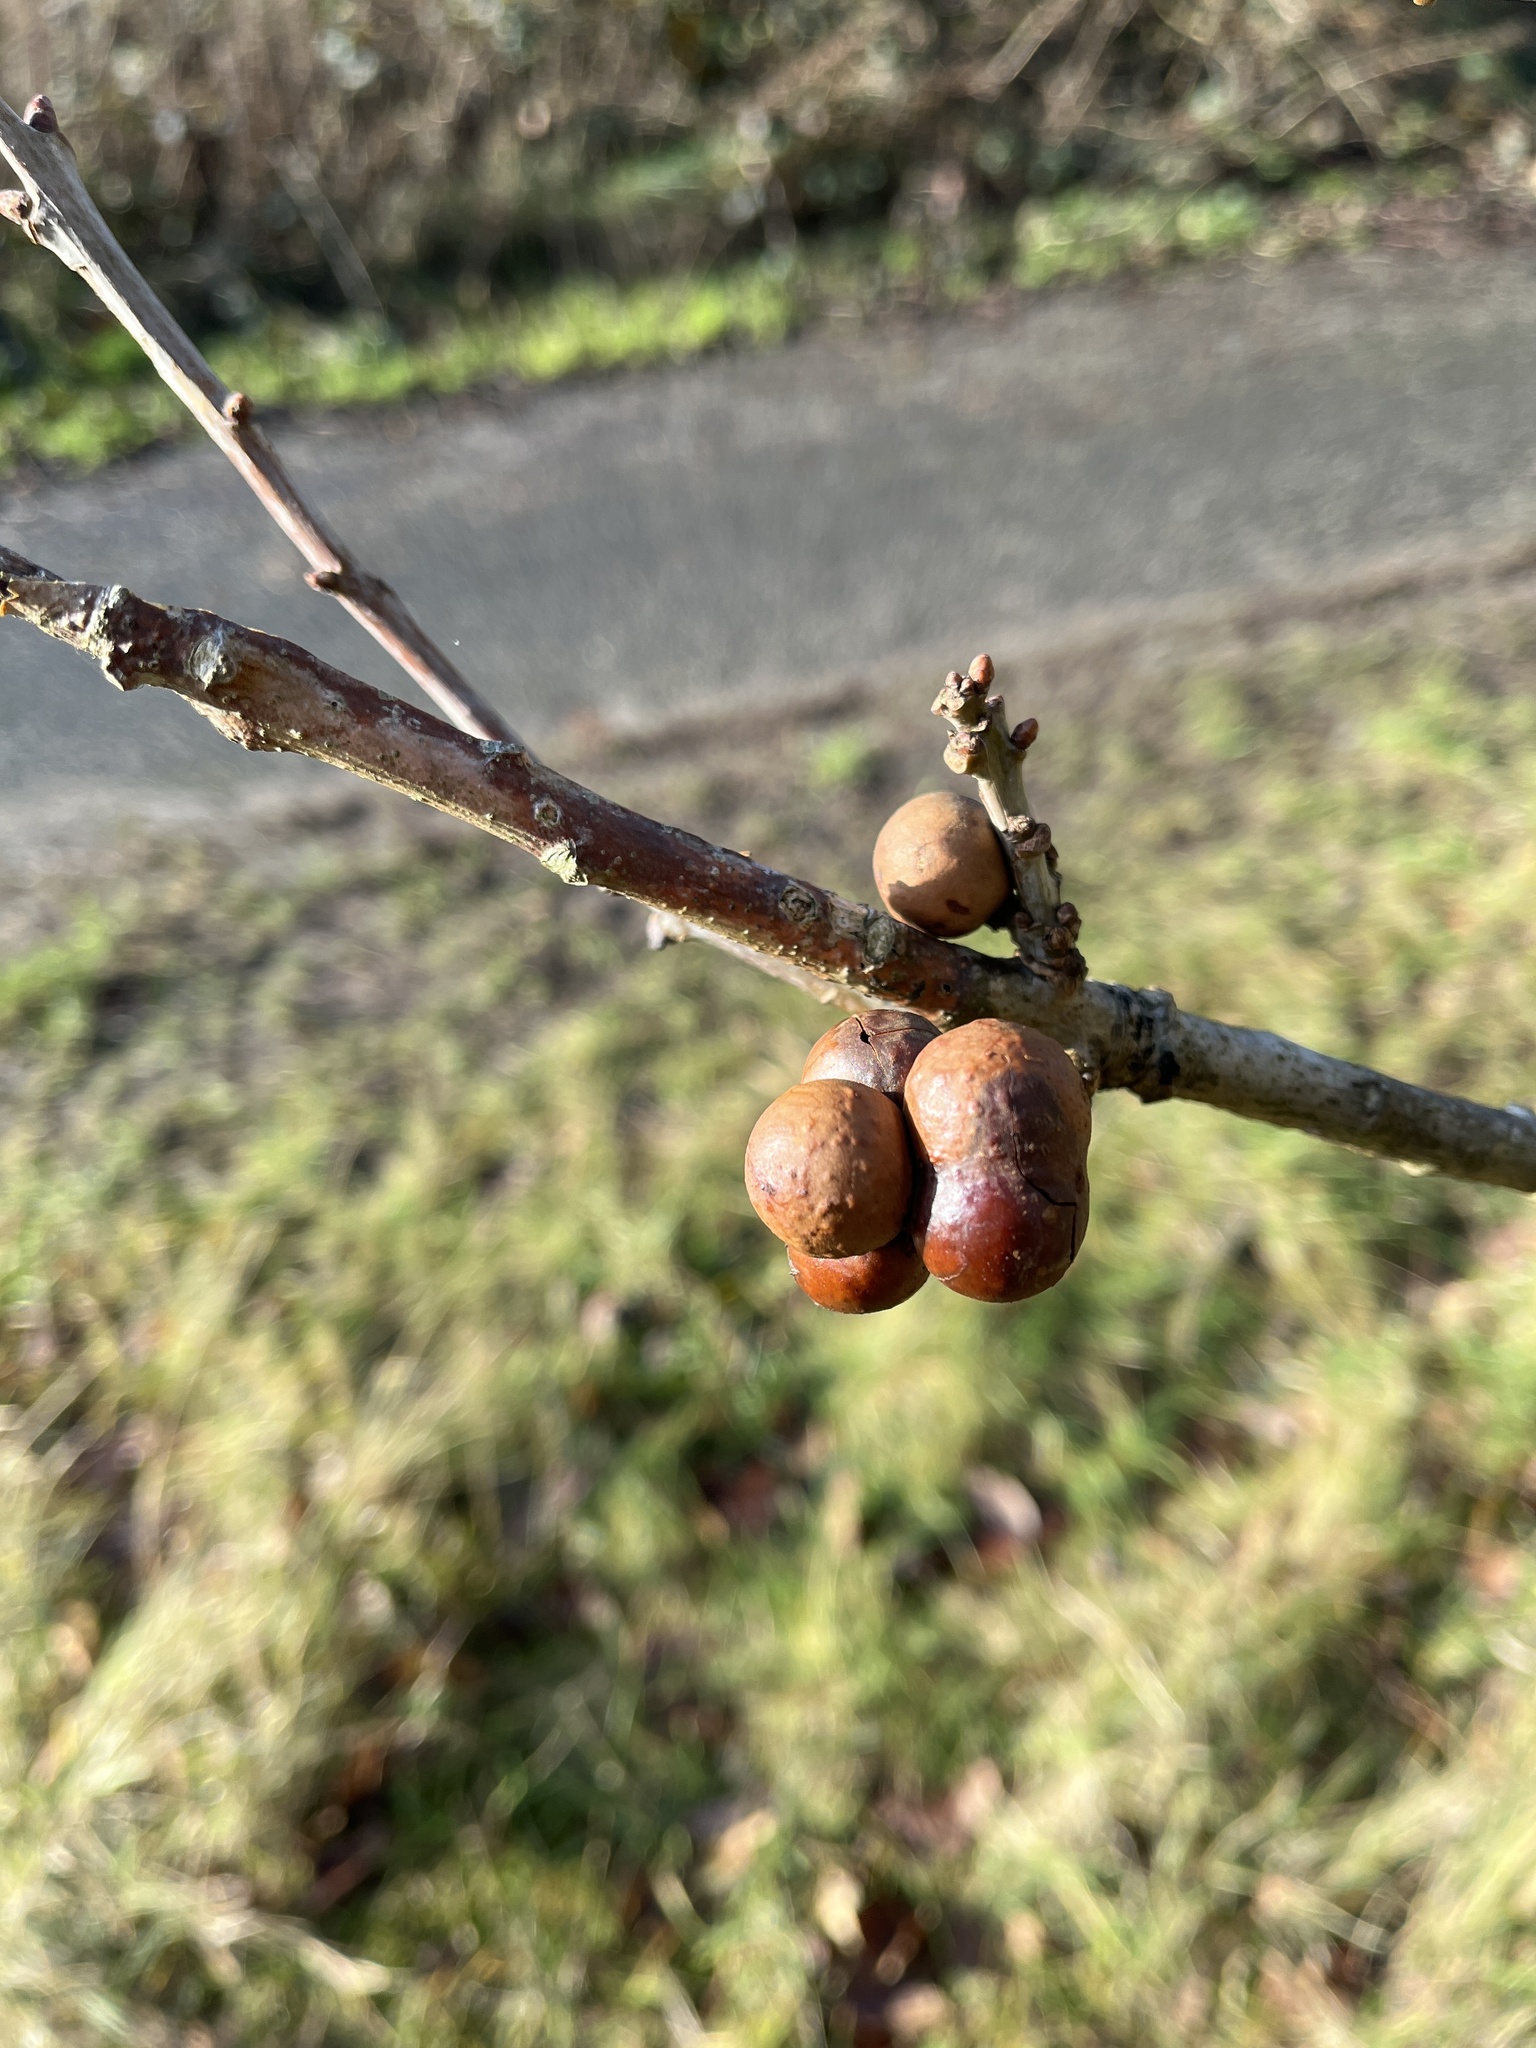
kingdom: Animalia
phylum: Arthropoda
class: Insecta
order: Hymenoptera
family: Cynipidae
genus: Andricus
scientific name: Andricus kollari
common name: Marble gall
